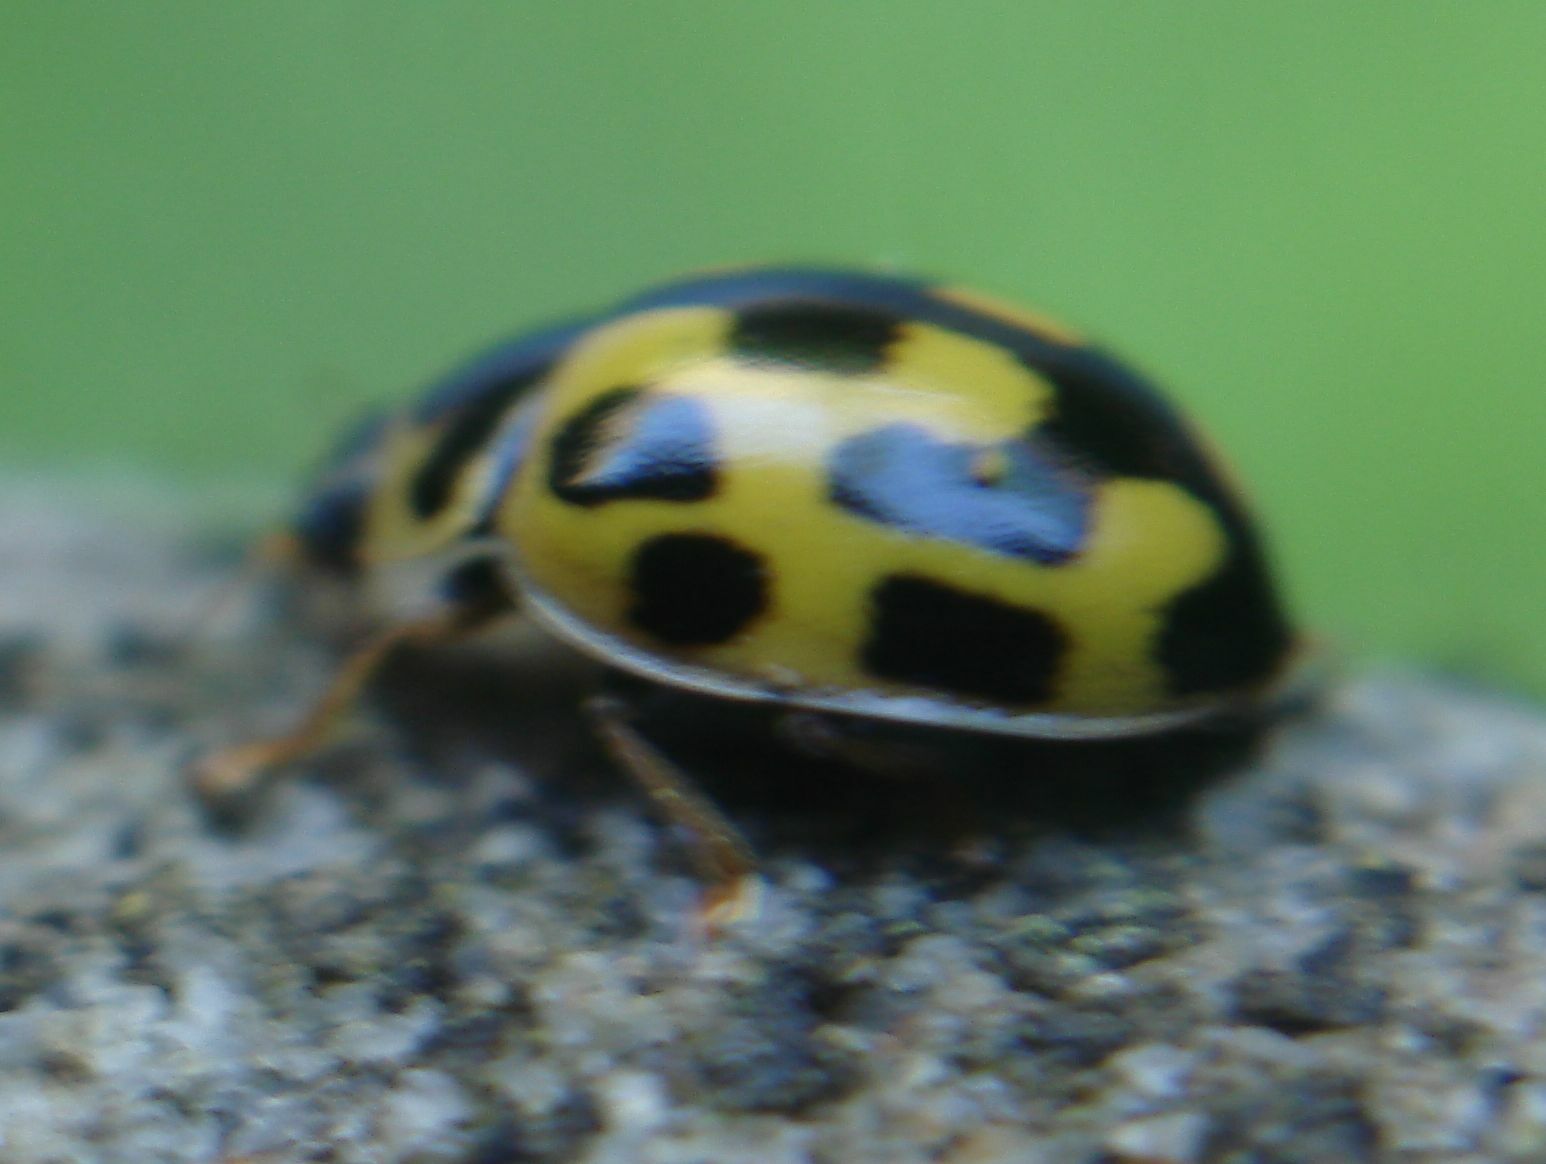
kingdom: Animalia
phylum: Arthropoda
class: Insecta
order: Coleoptera
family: Coccinellidae
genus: Propylaea
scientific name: Propylaea quatuordecimpunctata
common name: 14-spotted ladybird beetle
